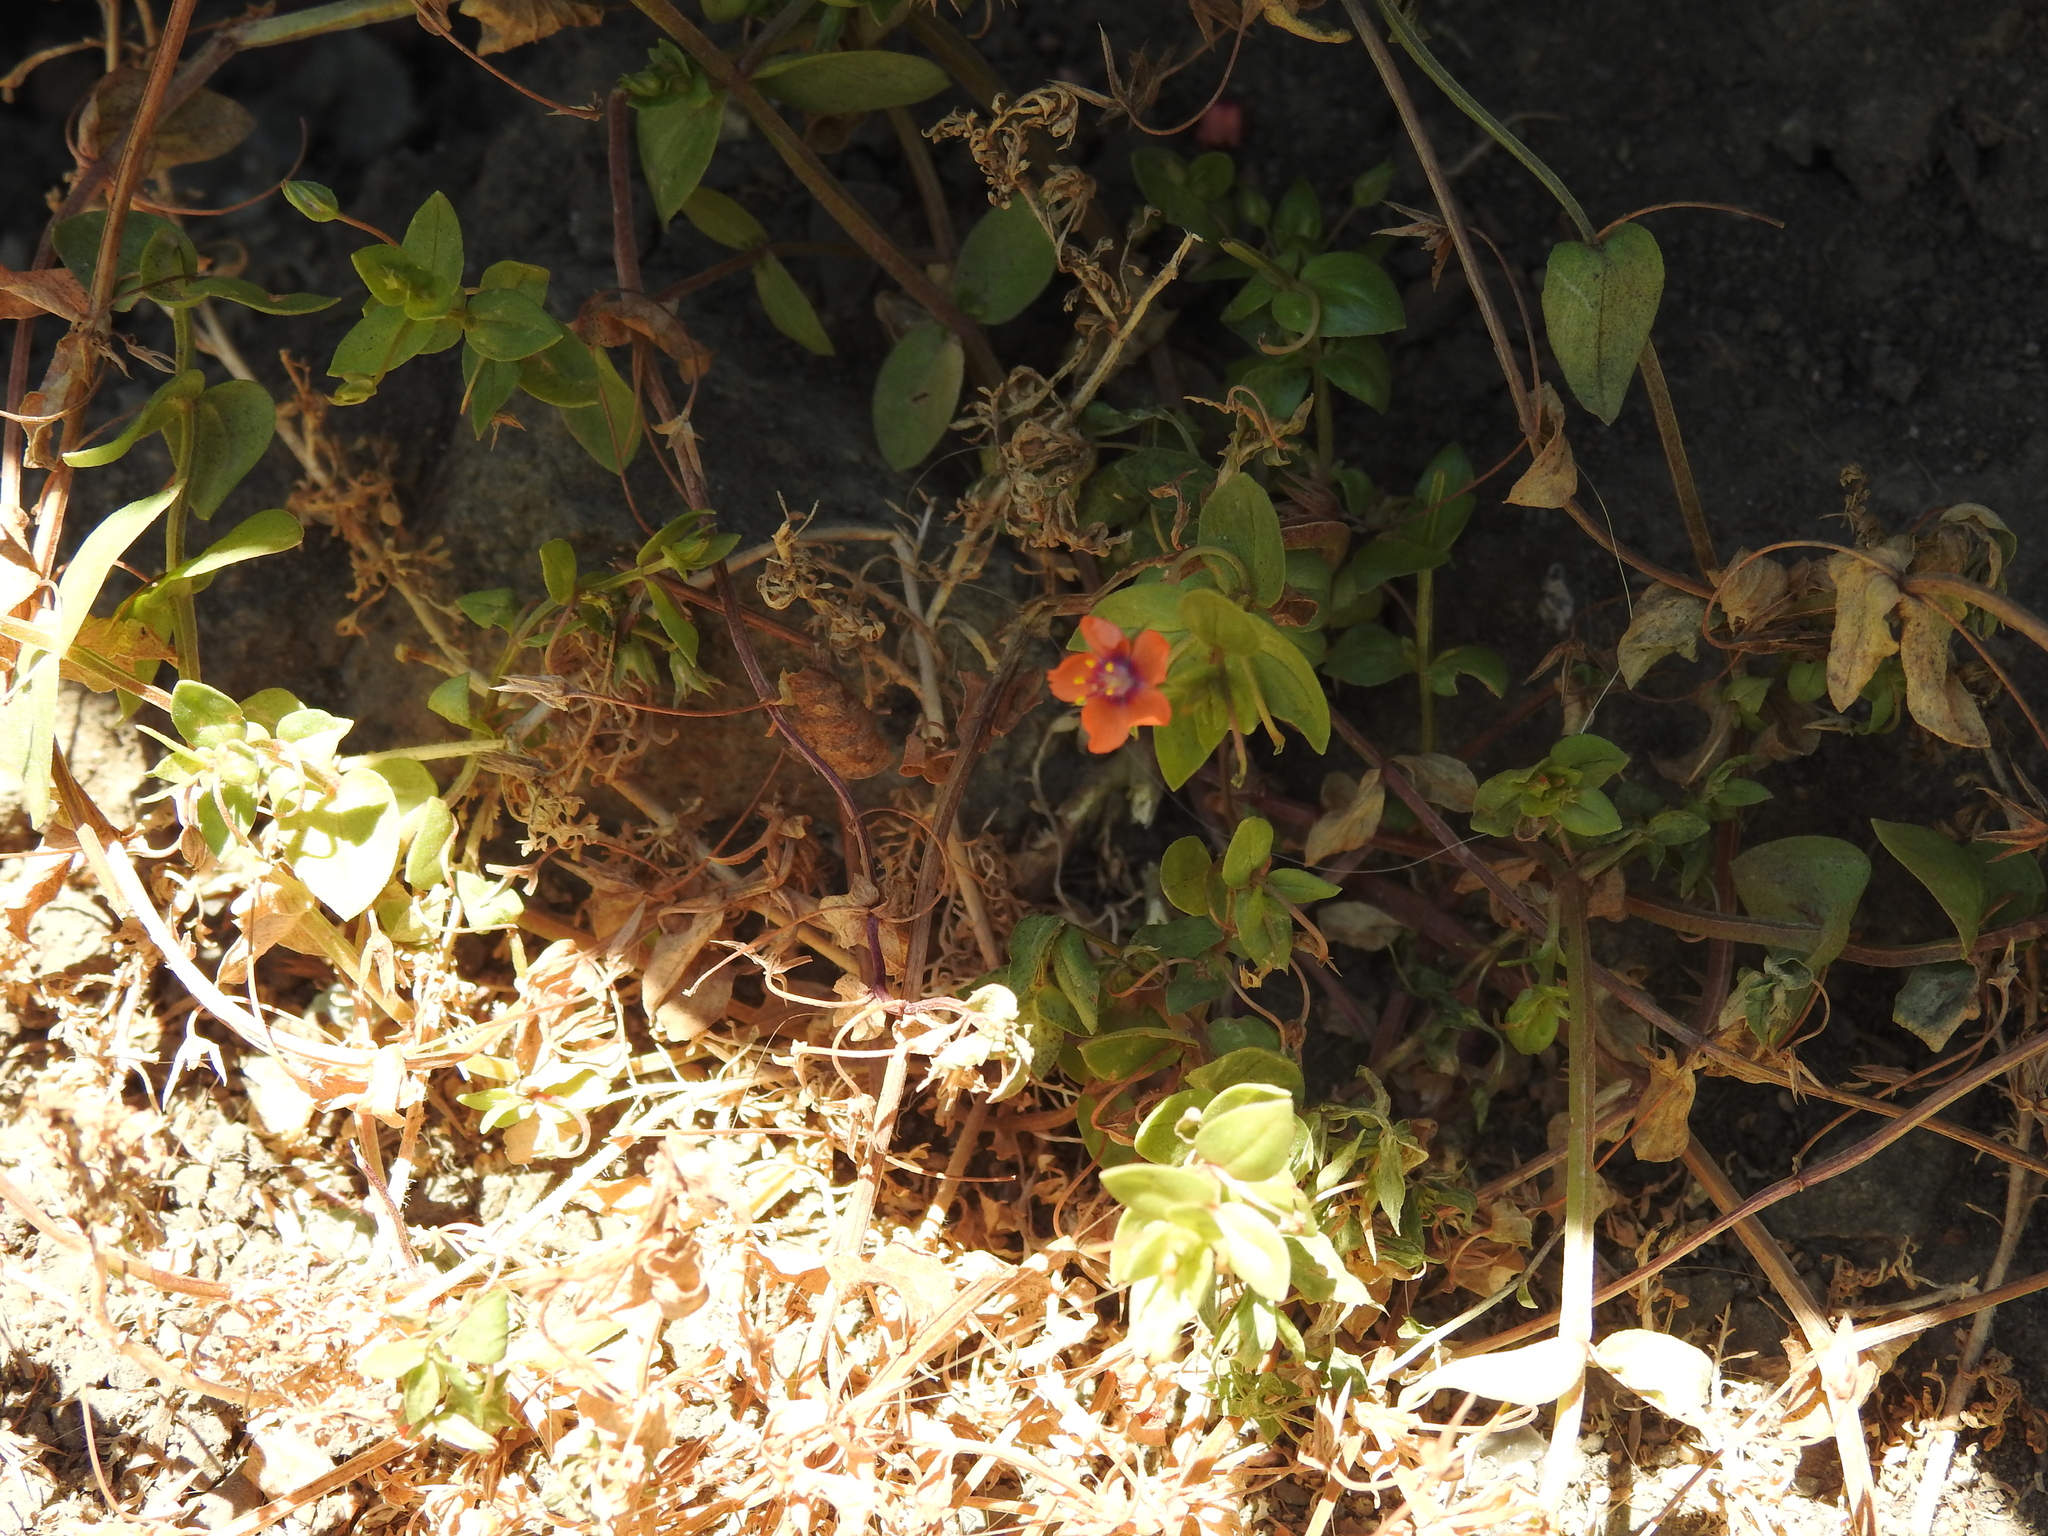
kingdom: Plantae
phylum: Tracheophyta
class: Magnoliopsida
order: Ericales
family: Primulaceae
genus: Lysimachia
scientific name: Lysimachia arvensis
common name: Scarlet pimpernel
